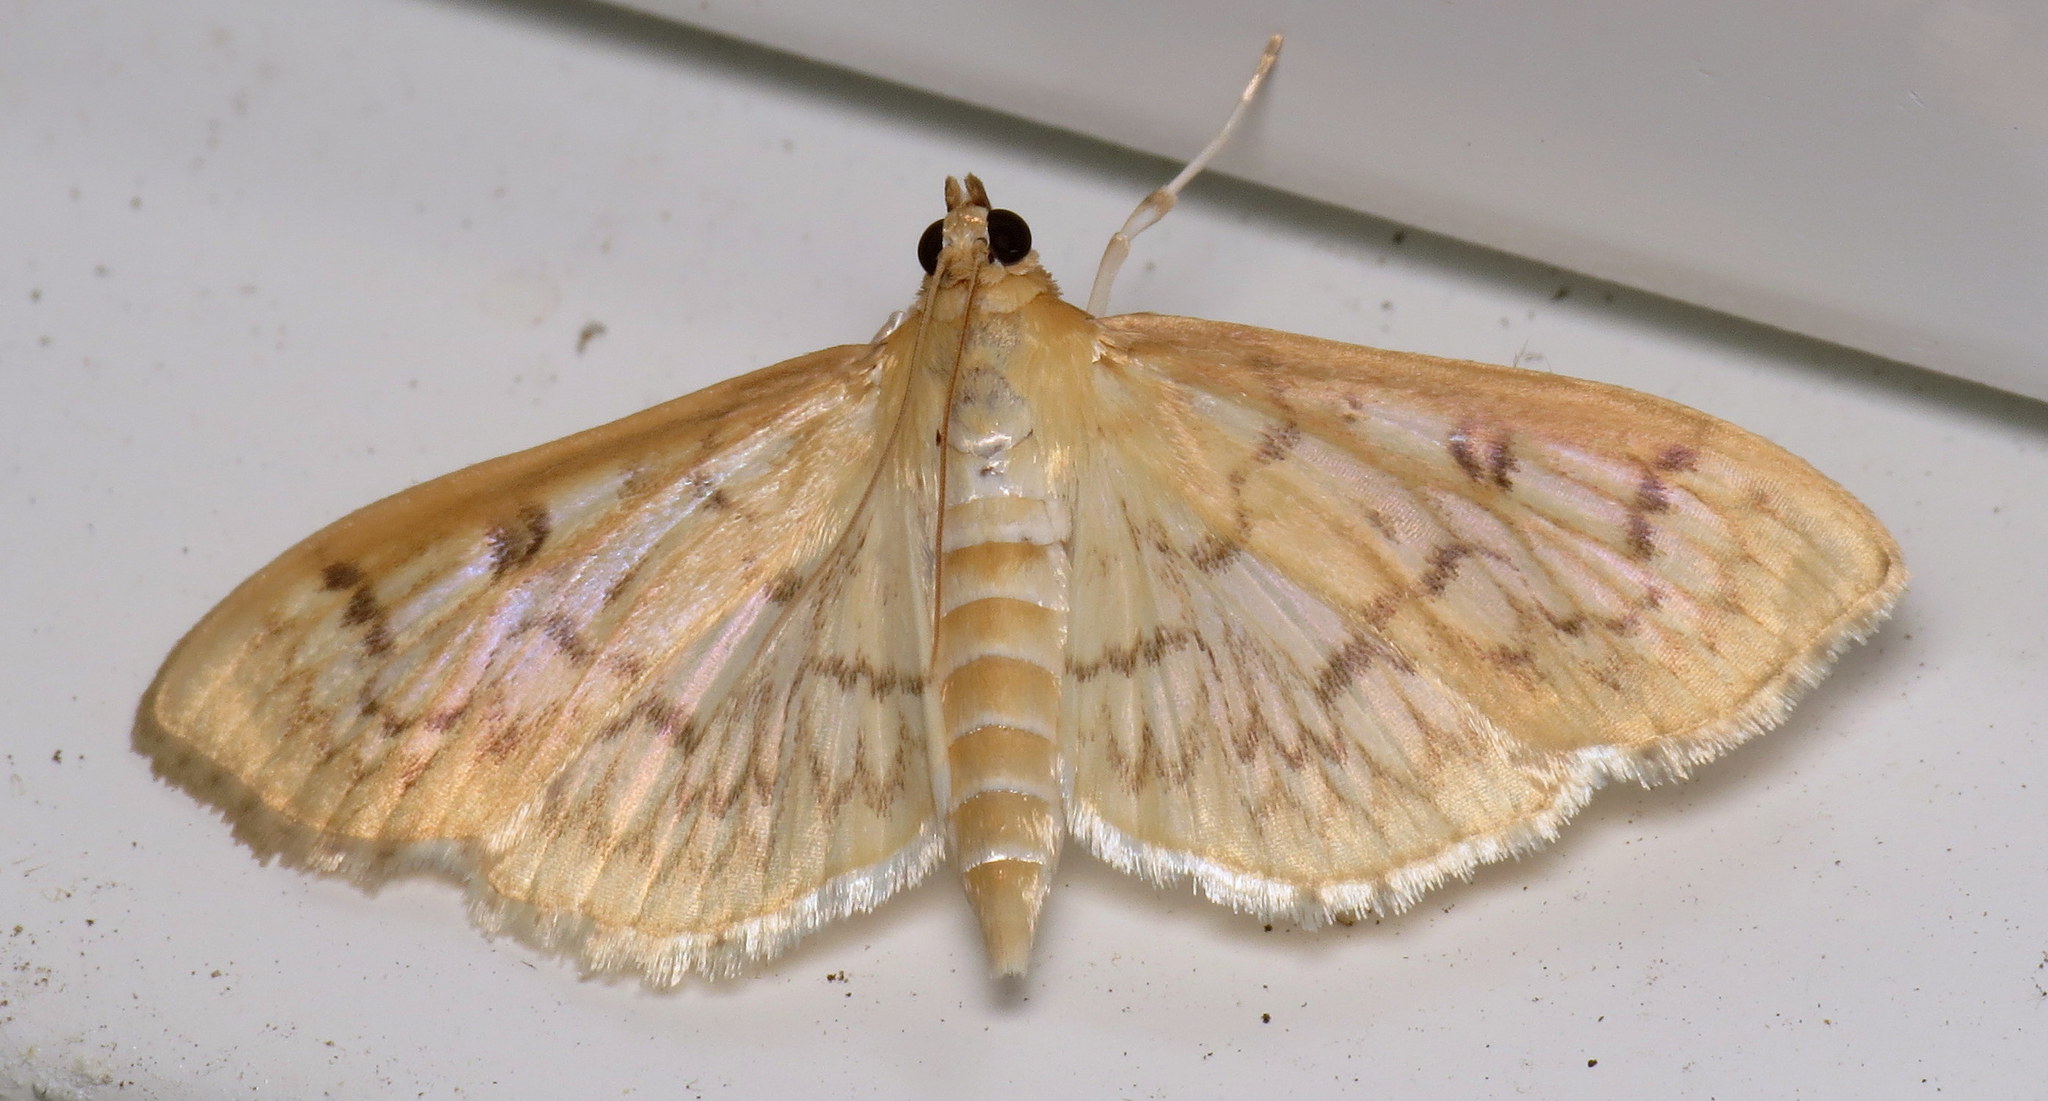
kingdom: Animalia
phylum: Arthropoda
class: Insecta
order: Lepidoptera
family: Crambidae
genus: Herpetogramma
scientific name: Herpetogramma pertextalis
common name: Bold-feathered grass moth
